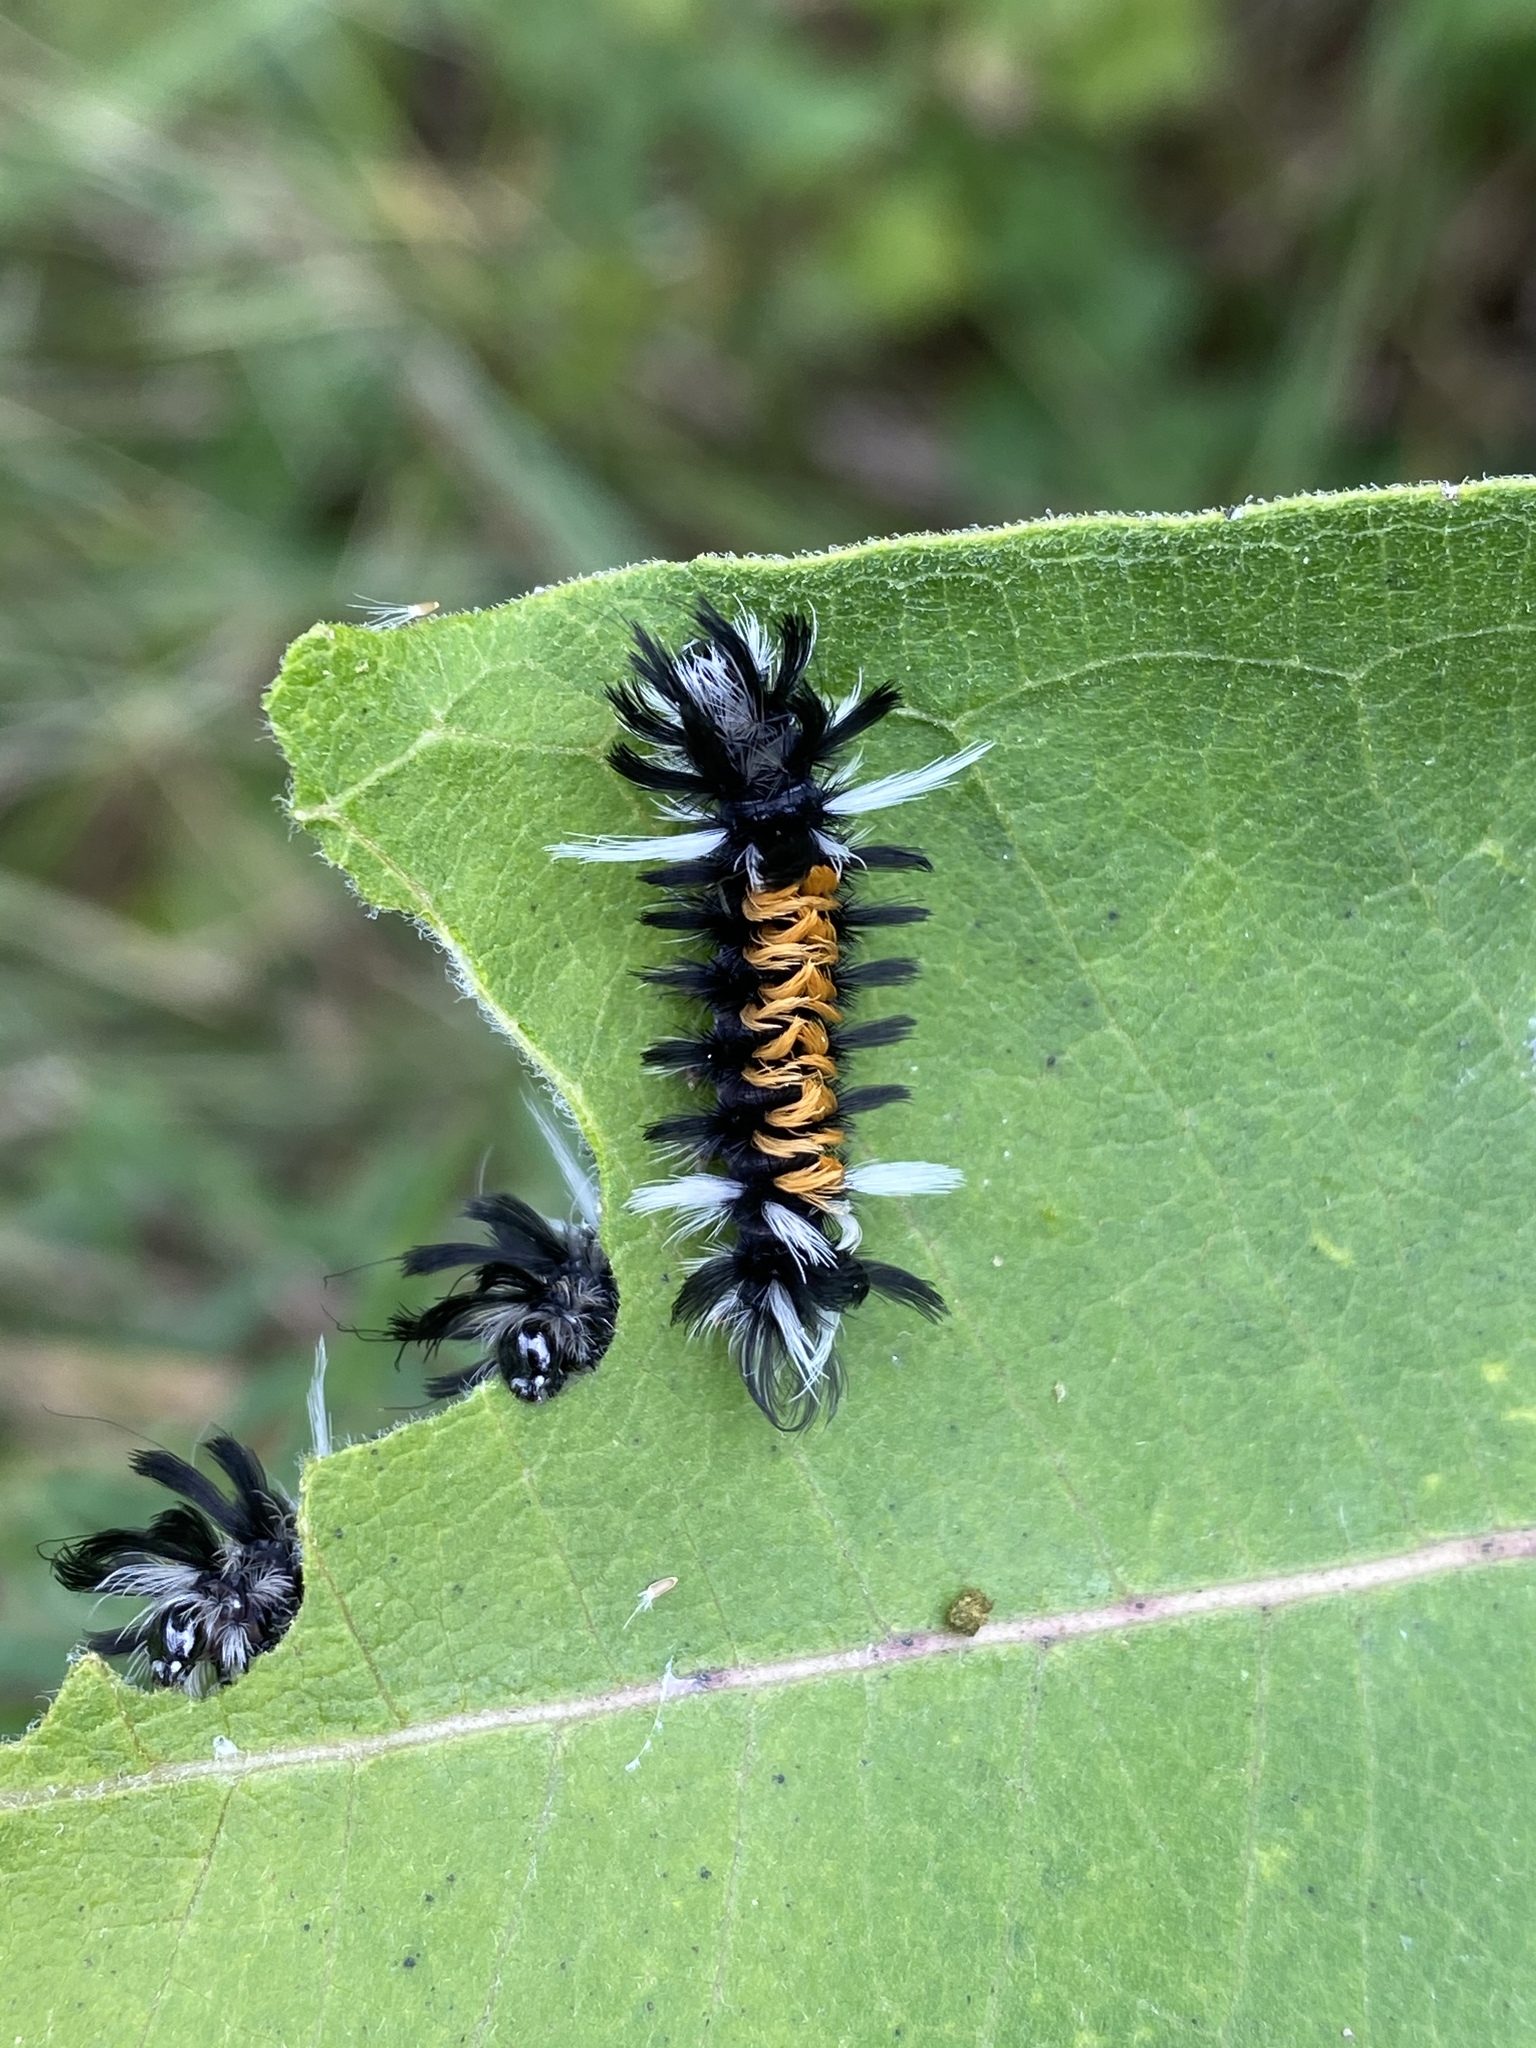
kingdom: Animalia
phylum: Arthropoda
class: Insecta
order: Lepidoptera
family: Erebidae
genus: Euchaetes
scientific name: Euchaetes egle
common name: Milkweed tussock moth
